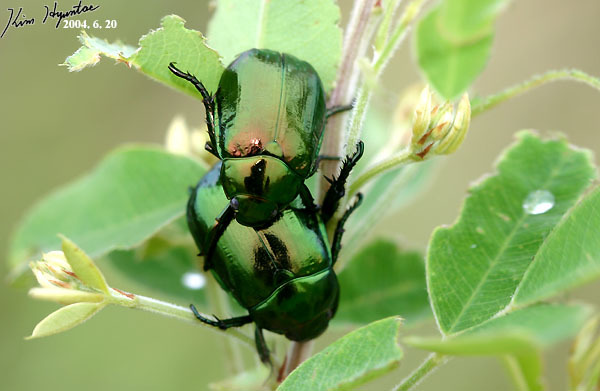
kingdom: Animalia
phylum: Arthropoda
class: Insecta
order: Coleoptera
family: Scarabaeidae
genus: Mimela
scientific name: Mimela splendens
